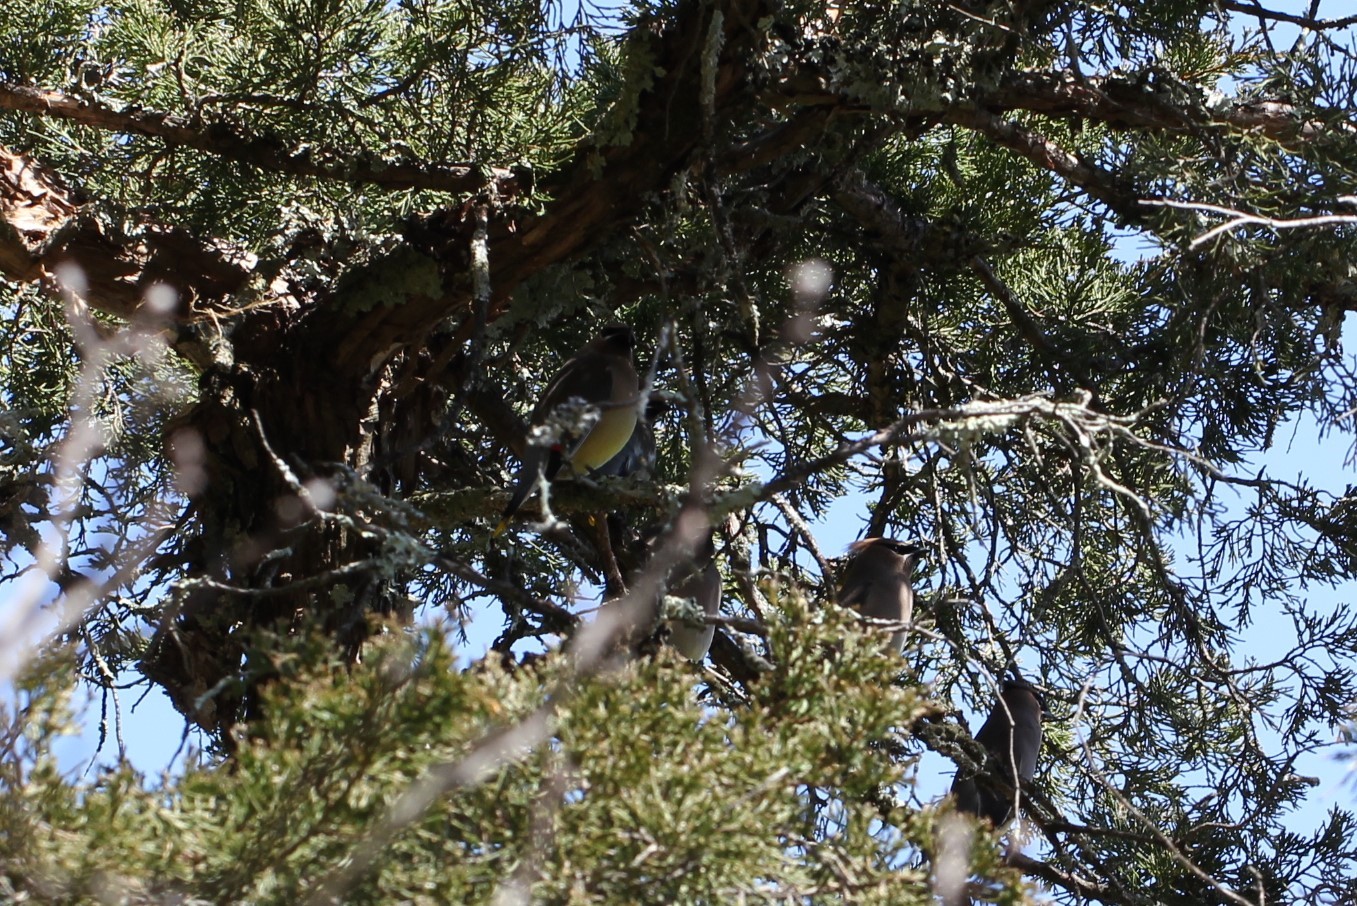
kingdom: Animalia
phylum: Chordata
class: Aves
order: Passeriformes
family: Bombycillidae
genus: Bombycilla
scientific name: Bombycilla cedrorum
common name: Cedar waxwing
